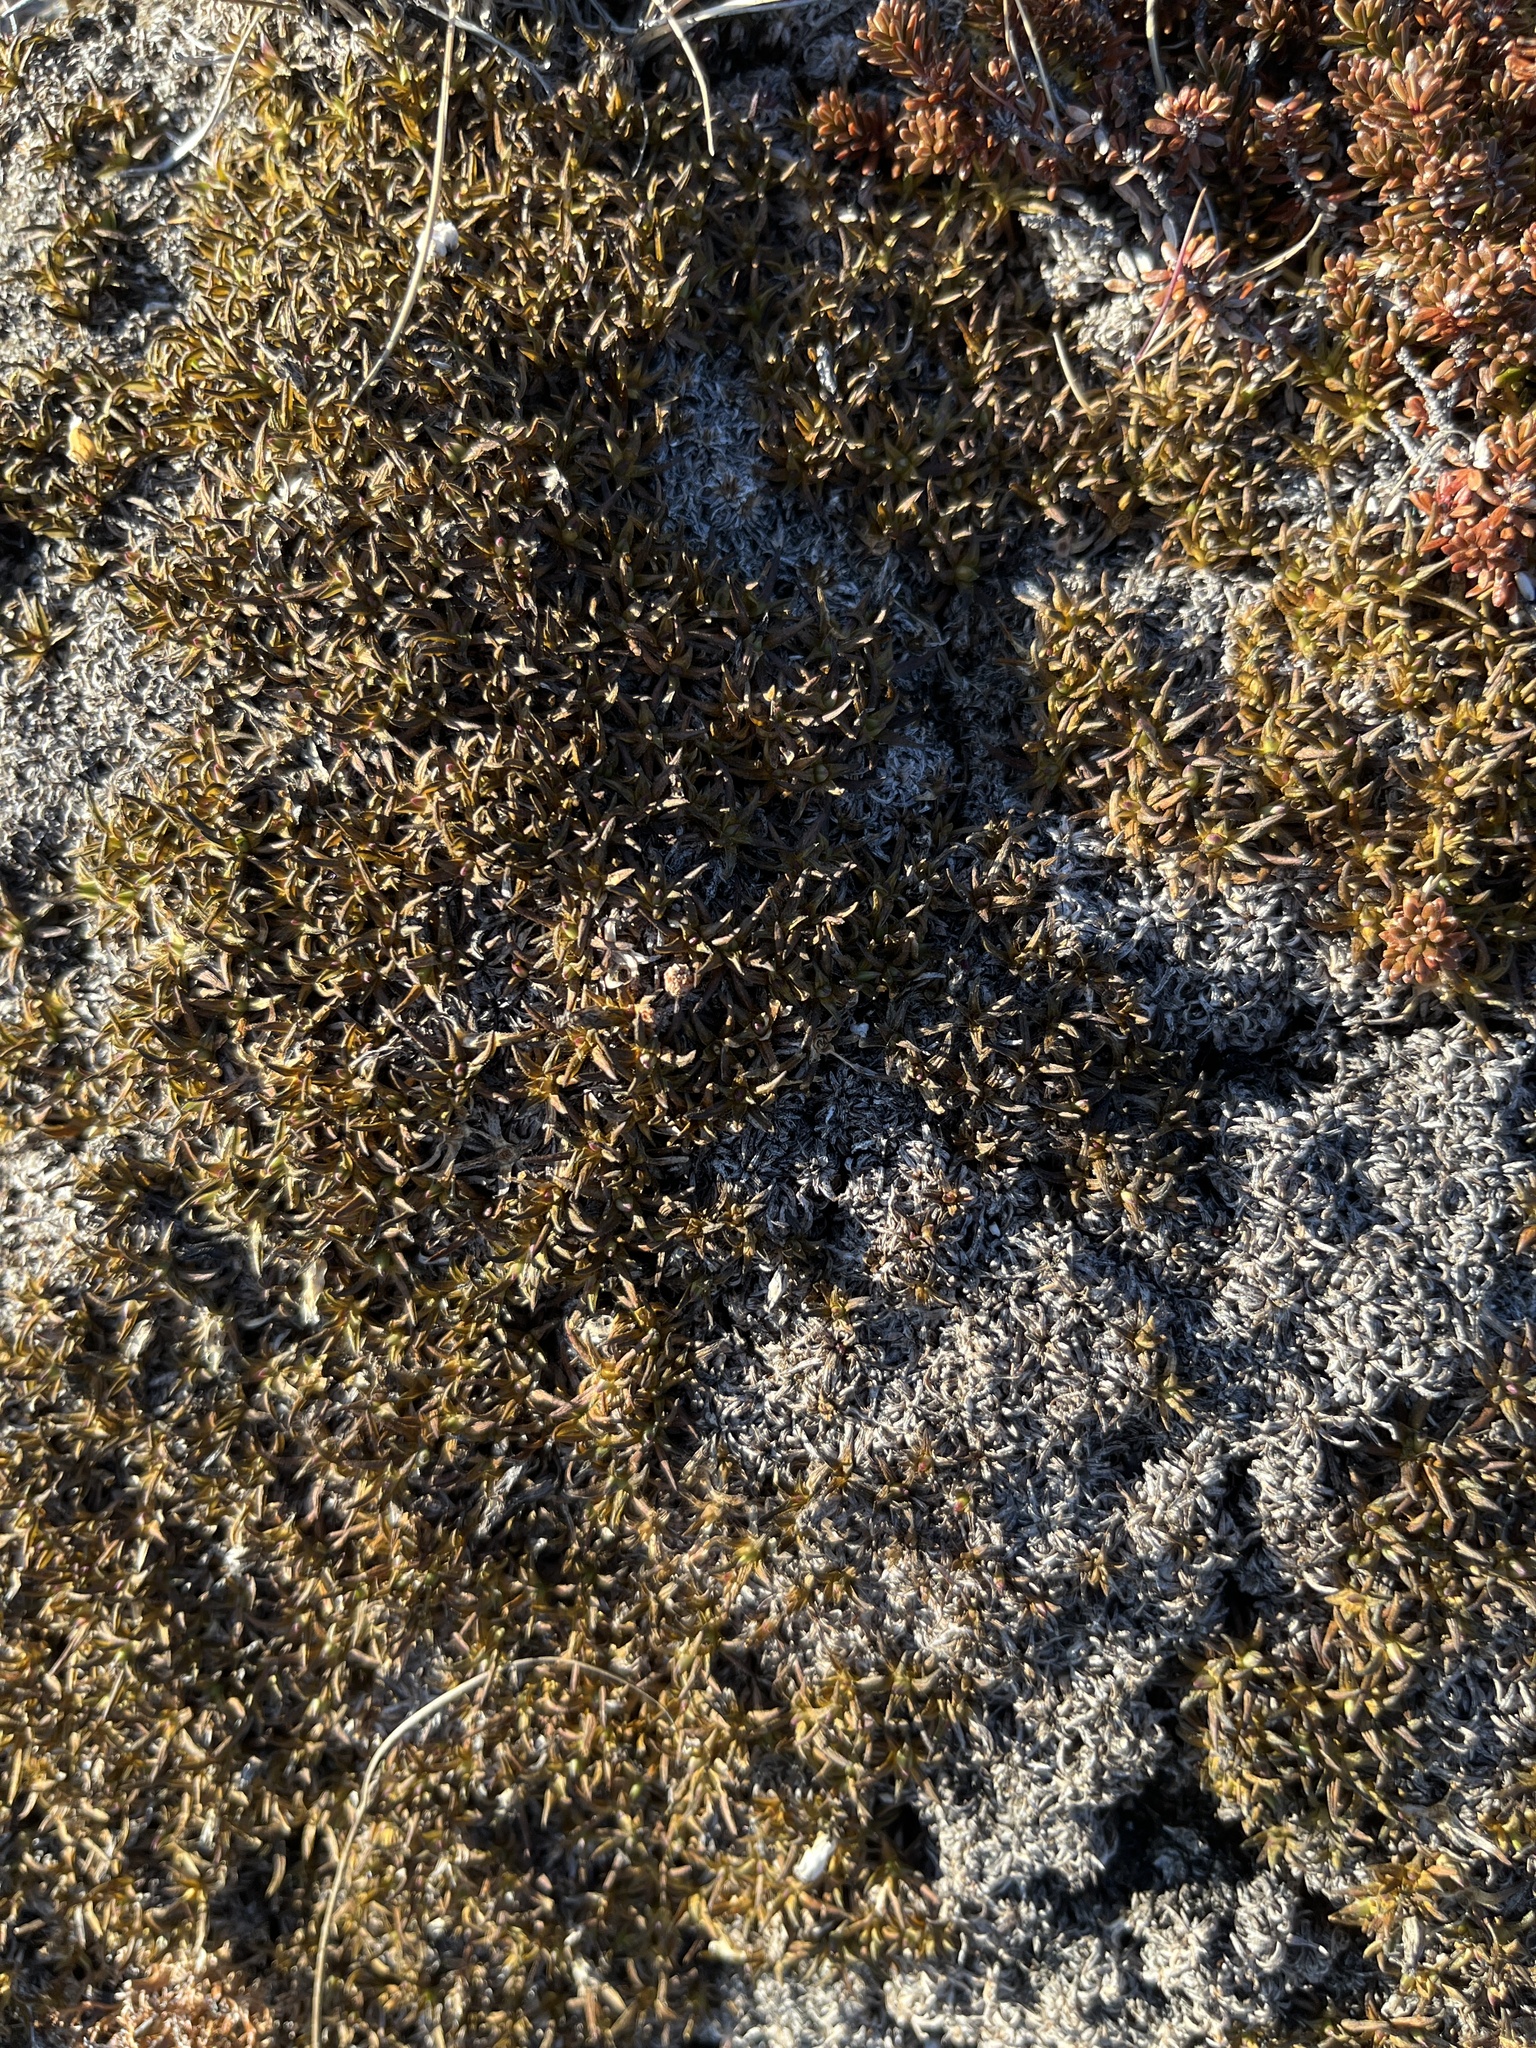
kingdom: Plantae
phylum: Tracheophyta
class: Magnoliopsida
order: Caryophyllales
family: Caryophyllaceae
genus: Silene
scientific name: Silene acaulis
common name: Moss campion
